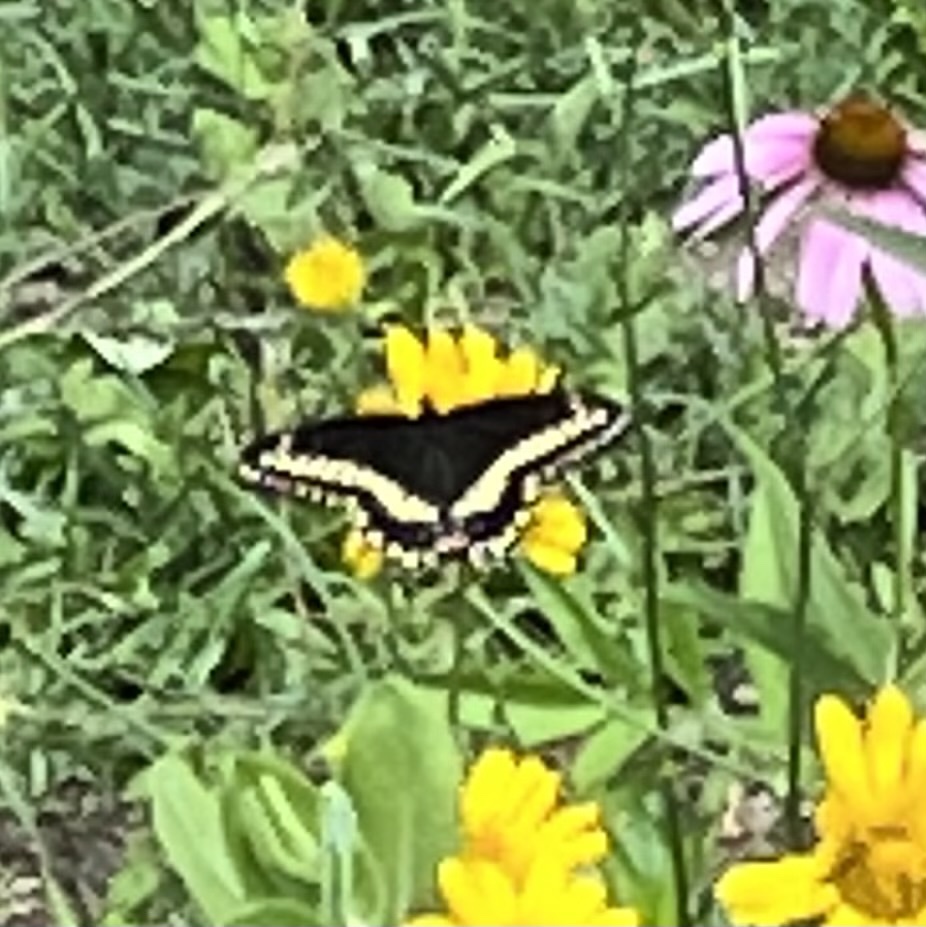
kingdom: Animalia
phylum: Arthropoda
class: Insecta
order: Lepidoptera
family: Papilionidae
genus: Papilio
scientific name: Papilio polyxenes
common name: Black swallowtail
